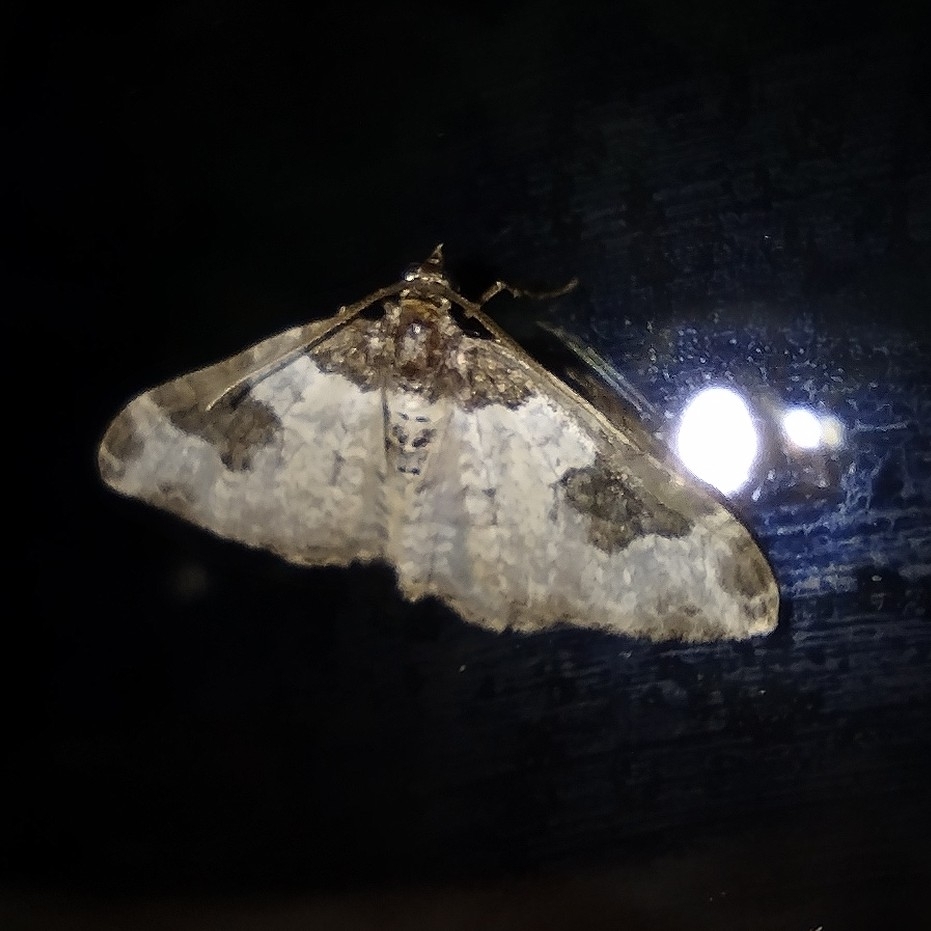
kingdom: Animalia
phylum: Arthropoda
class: Insecta
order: Lepidoptera
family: Geometridae
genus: Xanthorhoe
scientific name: Xanthorhoe fluctuata
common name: Garden carpet
